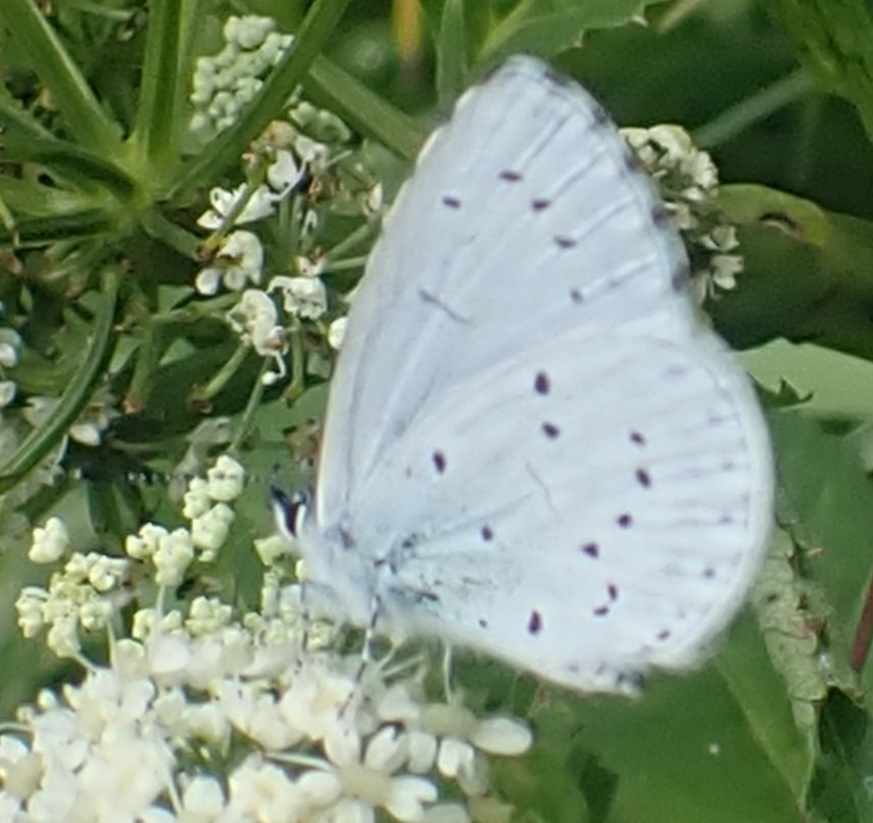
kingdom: Animalia
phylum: Arthropoda
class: Insecta
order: Lepidoptera
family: Lycaenidae
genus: Celastrina
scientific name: Celastrina argiolus
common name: Holly blue
